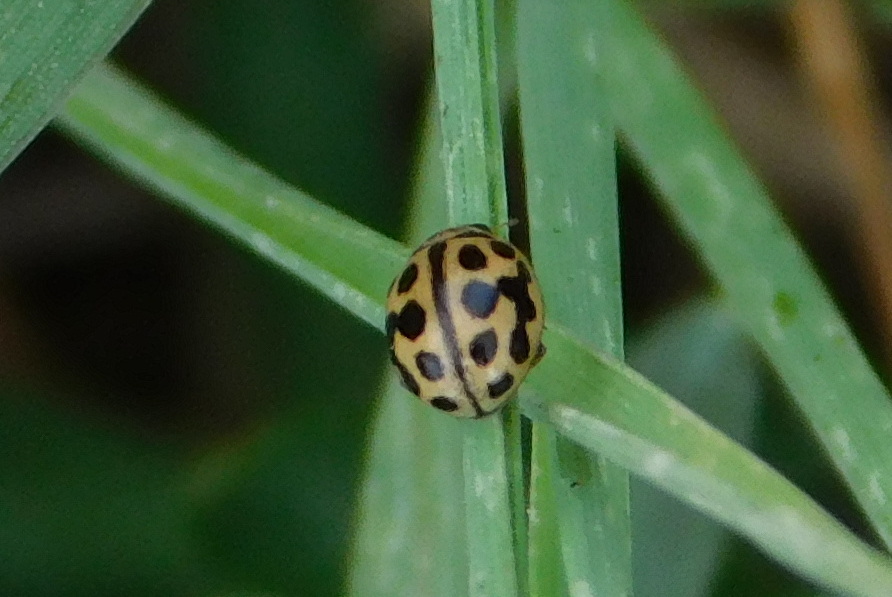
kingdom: Animalia
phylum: Arthropoda
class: Insecta
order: Coleoptera
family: Coccinellidae
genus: Tytthaspis
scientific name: Tytthaspis sedecimpunctata
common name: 16-spot ladybird
